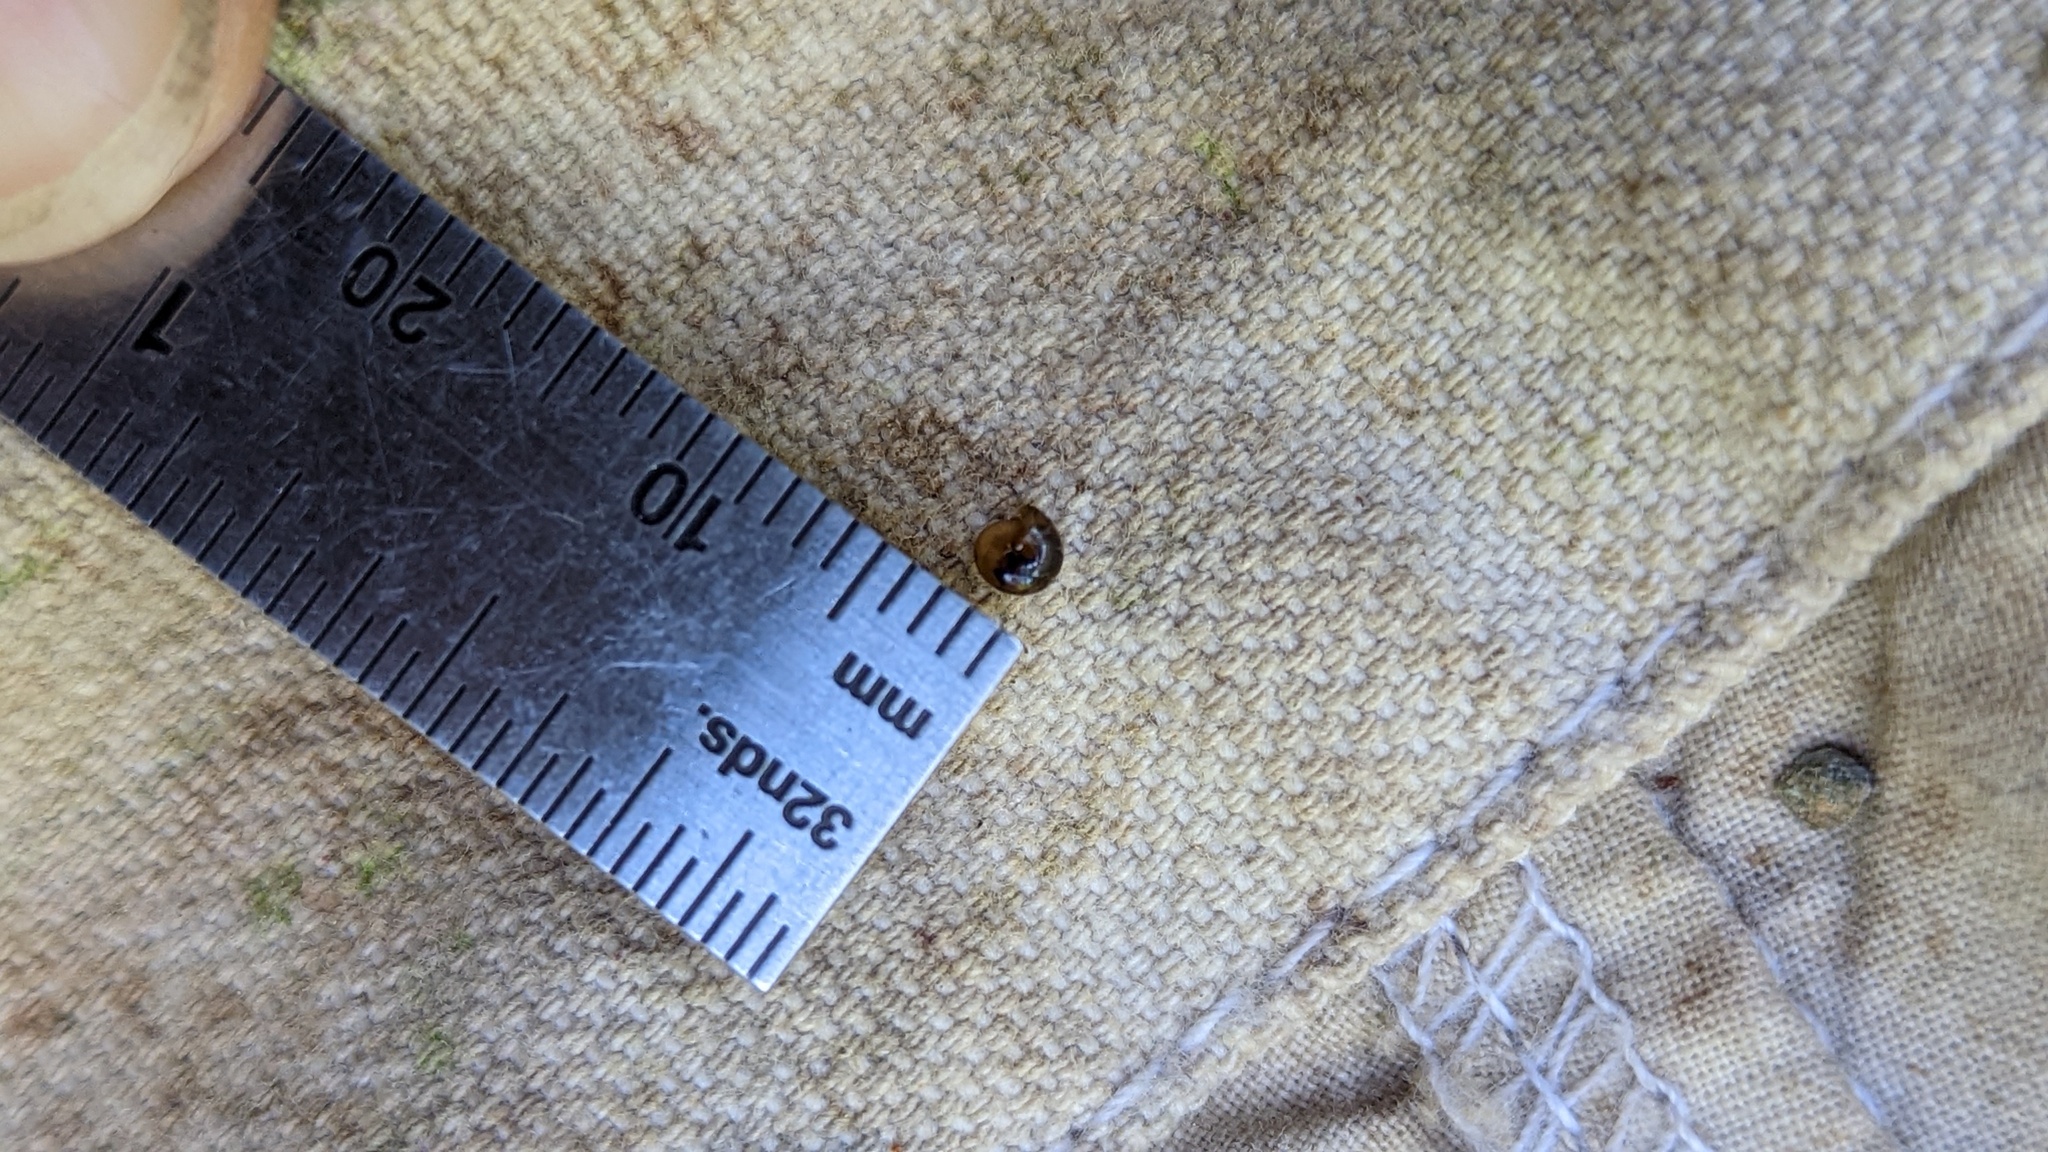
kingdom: Animalia
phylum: Mollusca
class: Gastropoda
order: Stylommatophora
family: Euconulidae
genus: Euconulus
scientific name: Euconulus fulvus
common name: Tawny glass snail
